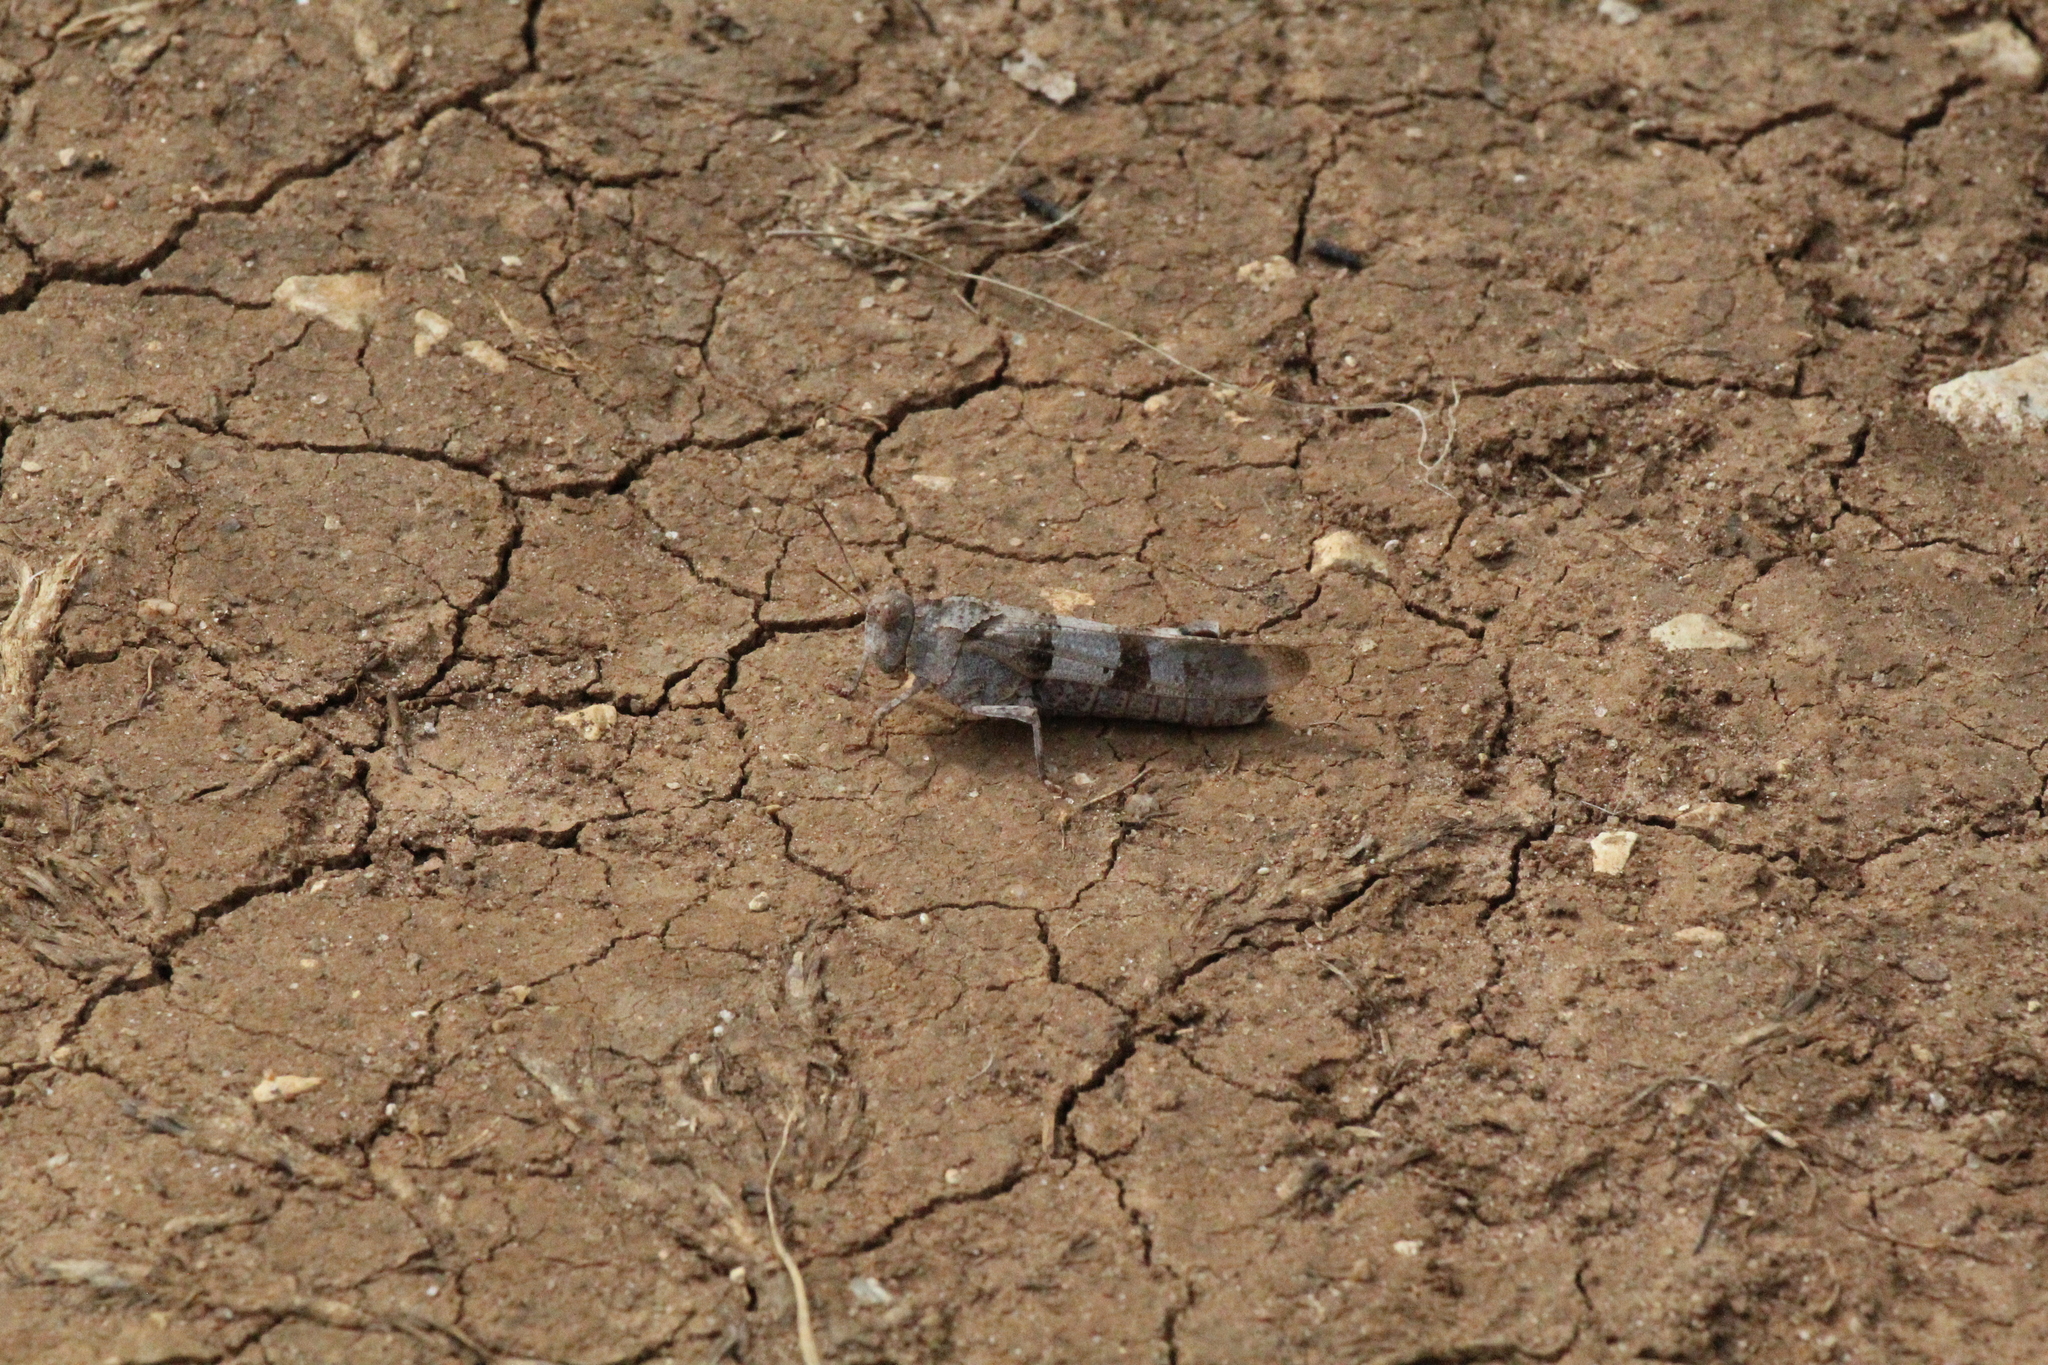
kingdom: Animalia
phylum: Arthropoda
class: Insecta
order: Orthoptera
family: Acrididae
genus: Oedipoda
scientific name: Oedipoda caerulescens
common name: Blue-winged grasshopper
